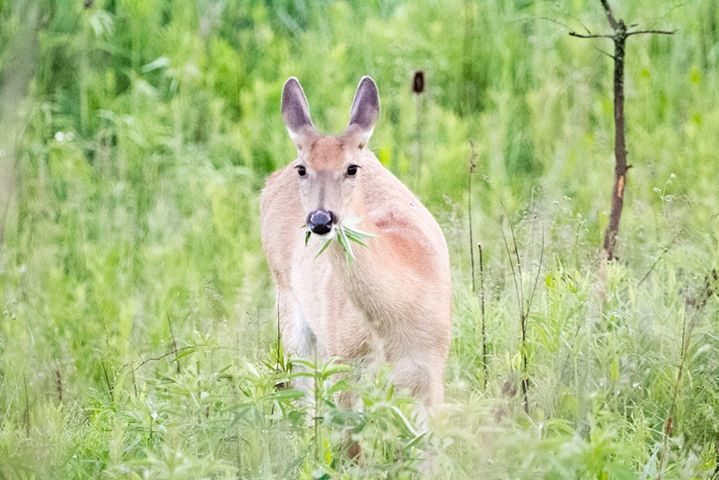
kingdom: Animalia
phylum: Chordata
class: Mammalia
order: Artiodactyla
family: Cervidae
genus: Odocoileus
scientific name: Odocoileus virginianus
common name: White-tailed deer
